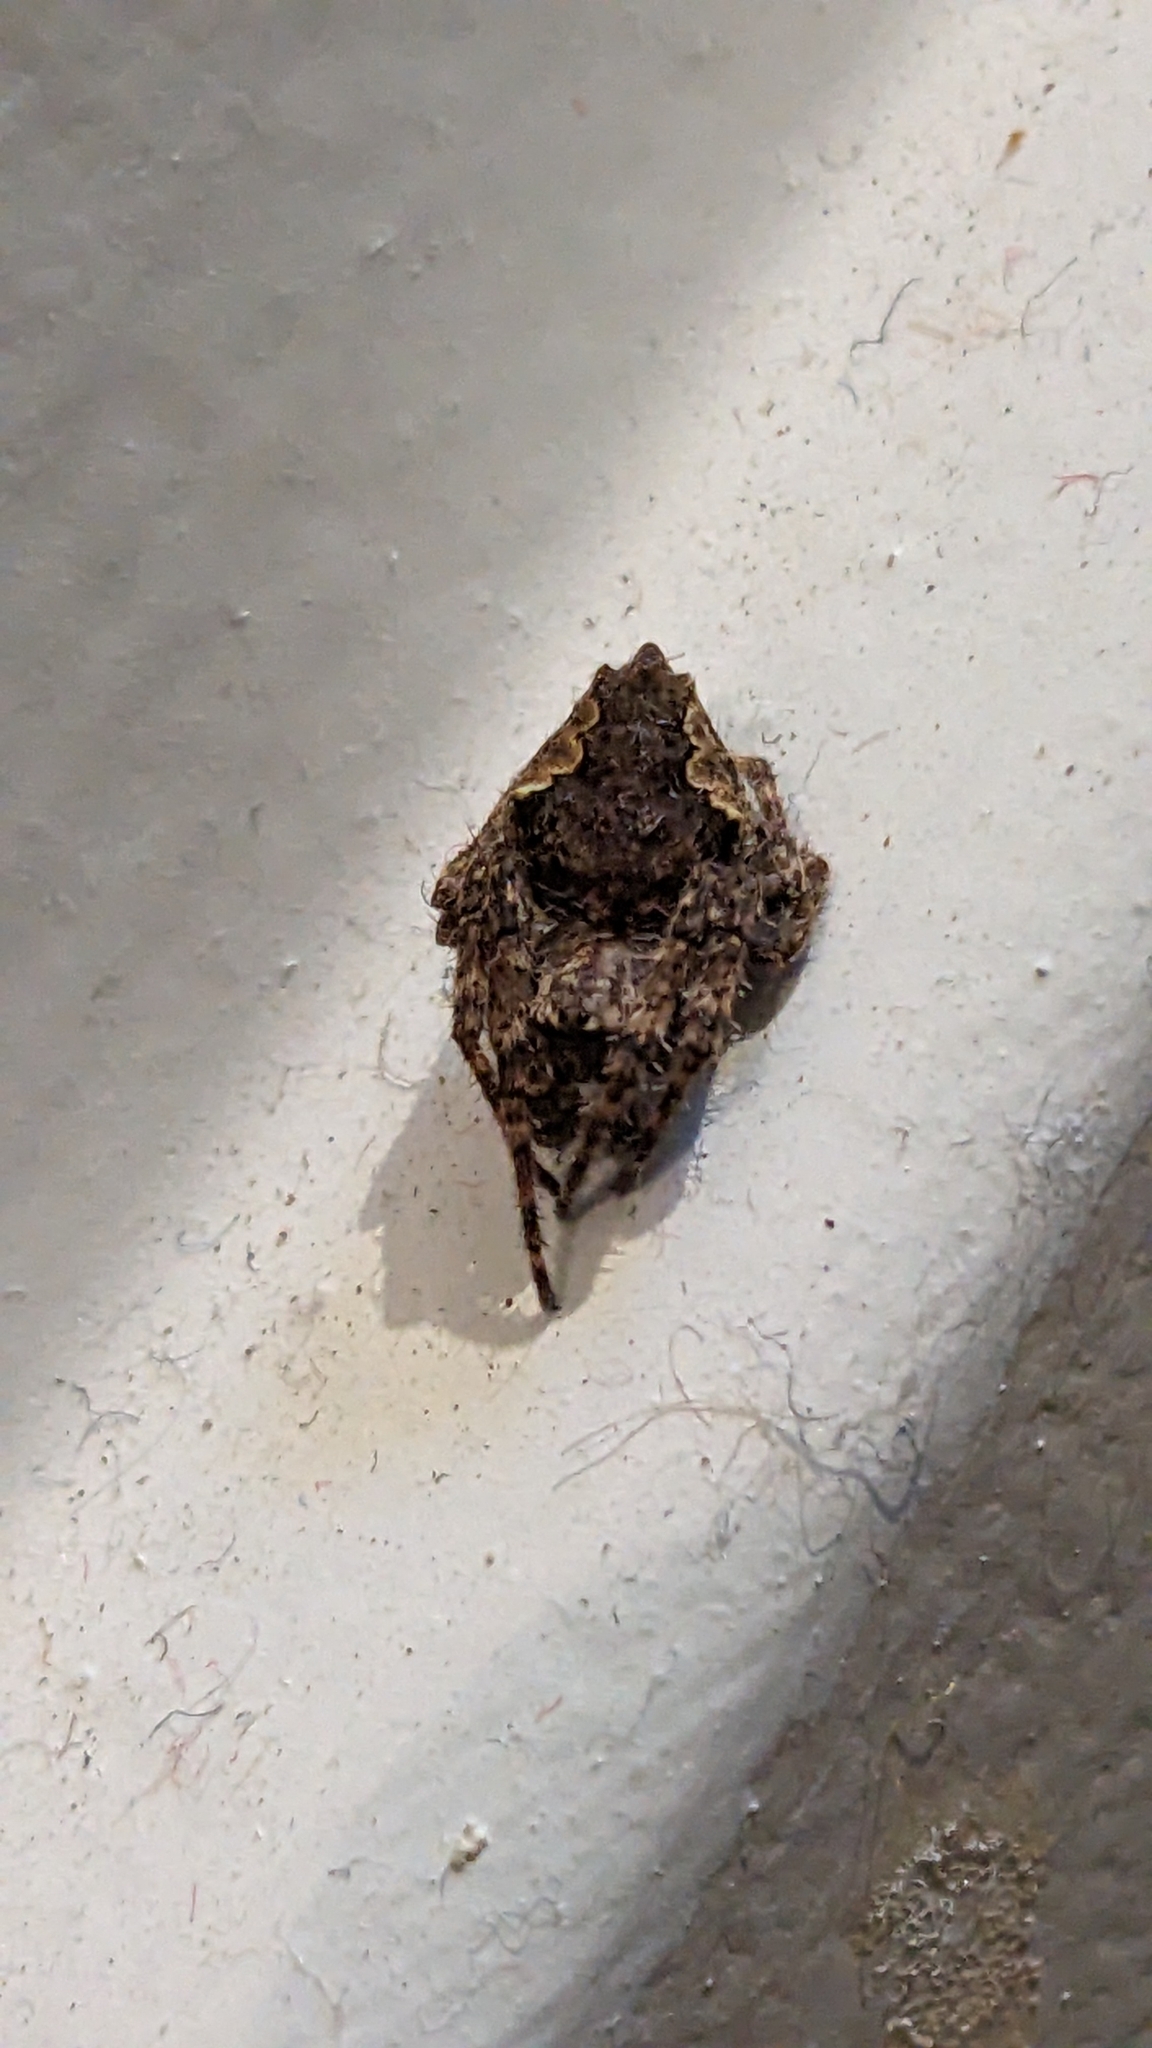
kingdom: Animalia
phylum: Arthropoda
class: Arachnida
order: Araneae
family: Araneidae
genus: Eriophora
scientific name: Eriophora pustulosa
